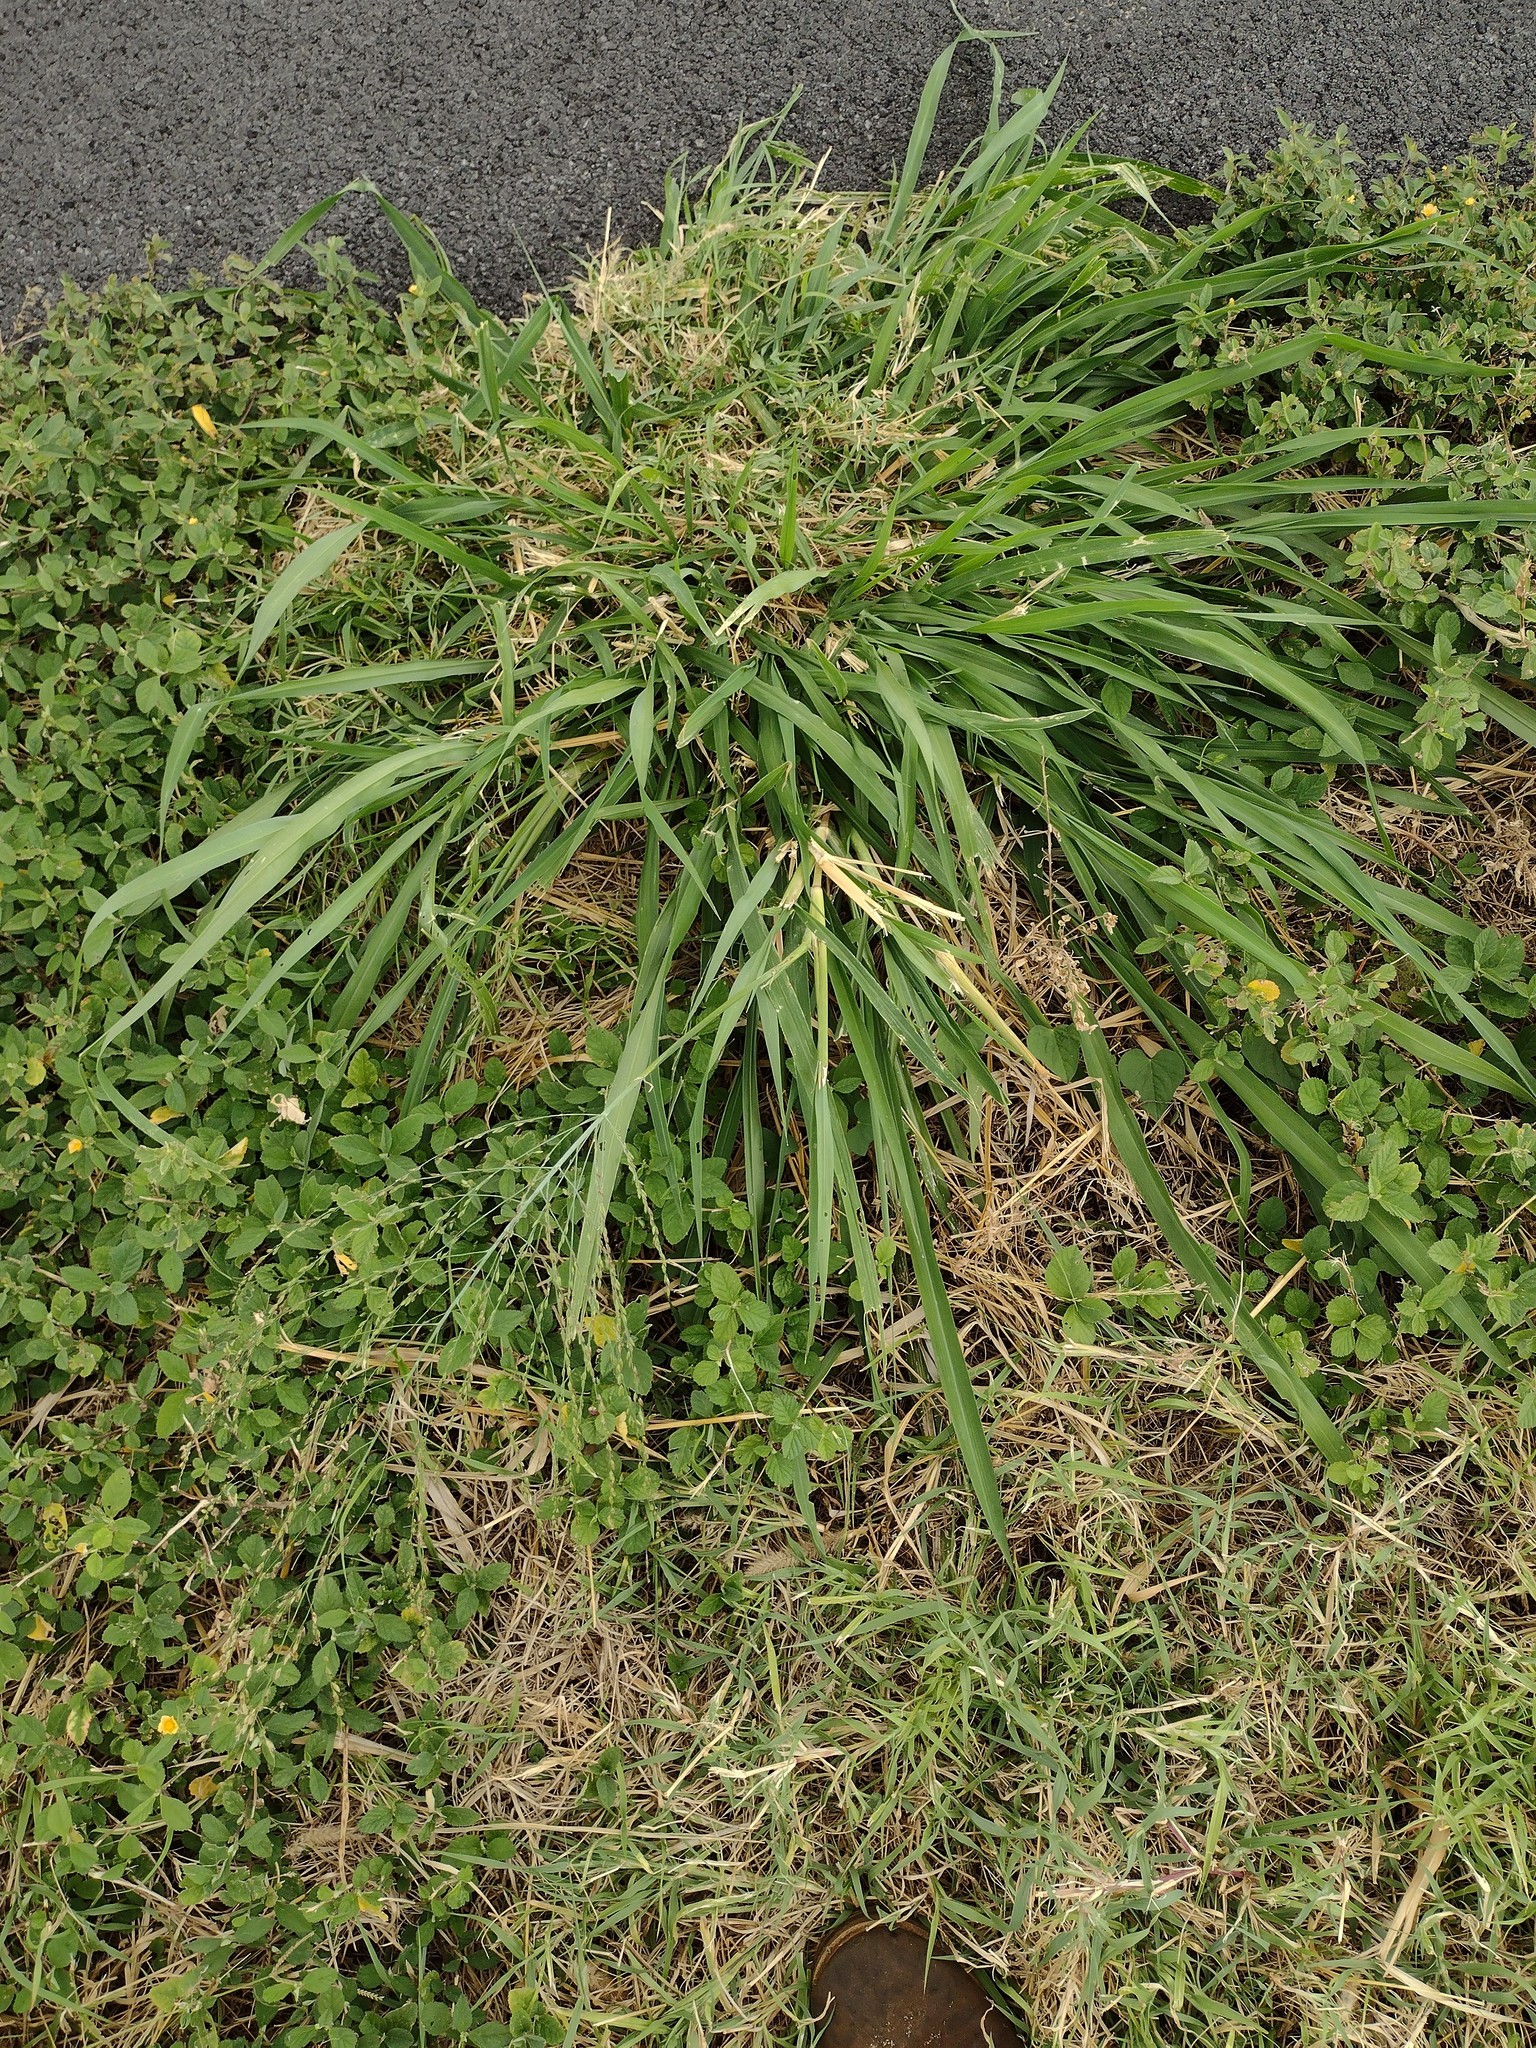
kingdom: Plantae
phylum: Tracheophyta
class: Liliopsida
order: Poales
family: Poaceae
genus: Megathyrsus
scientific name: Megathyrsus maximus
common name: Guineagrass
